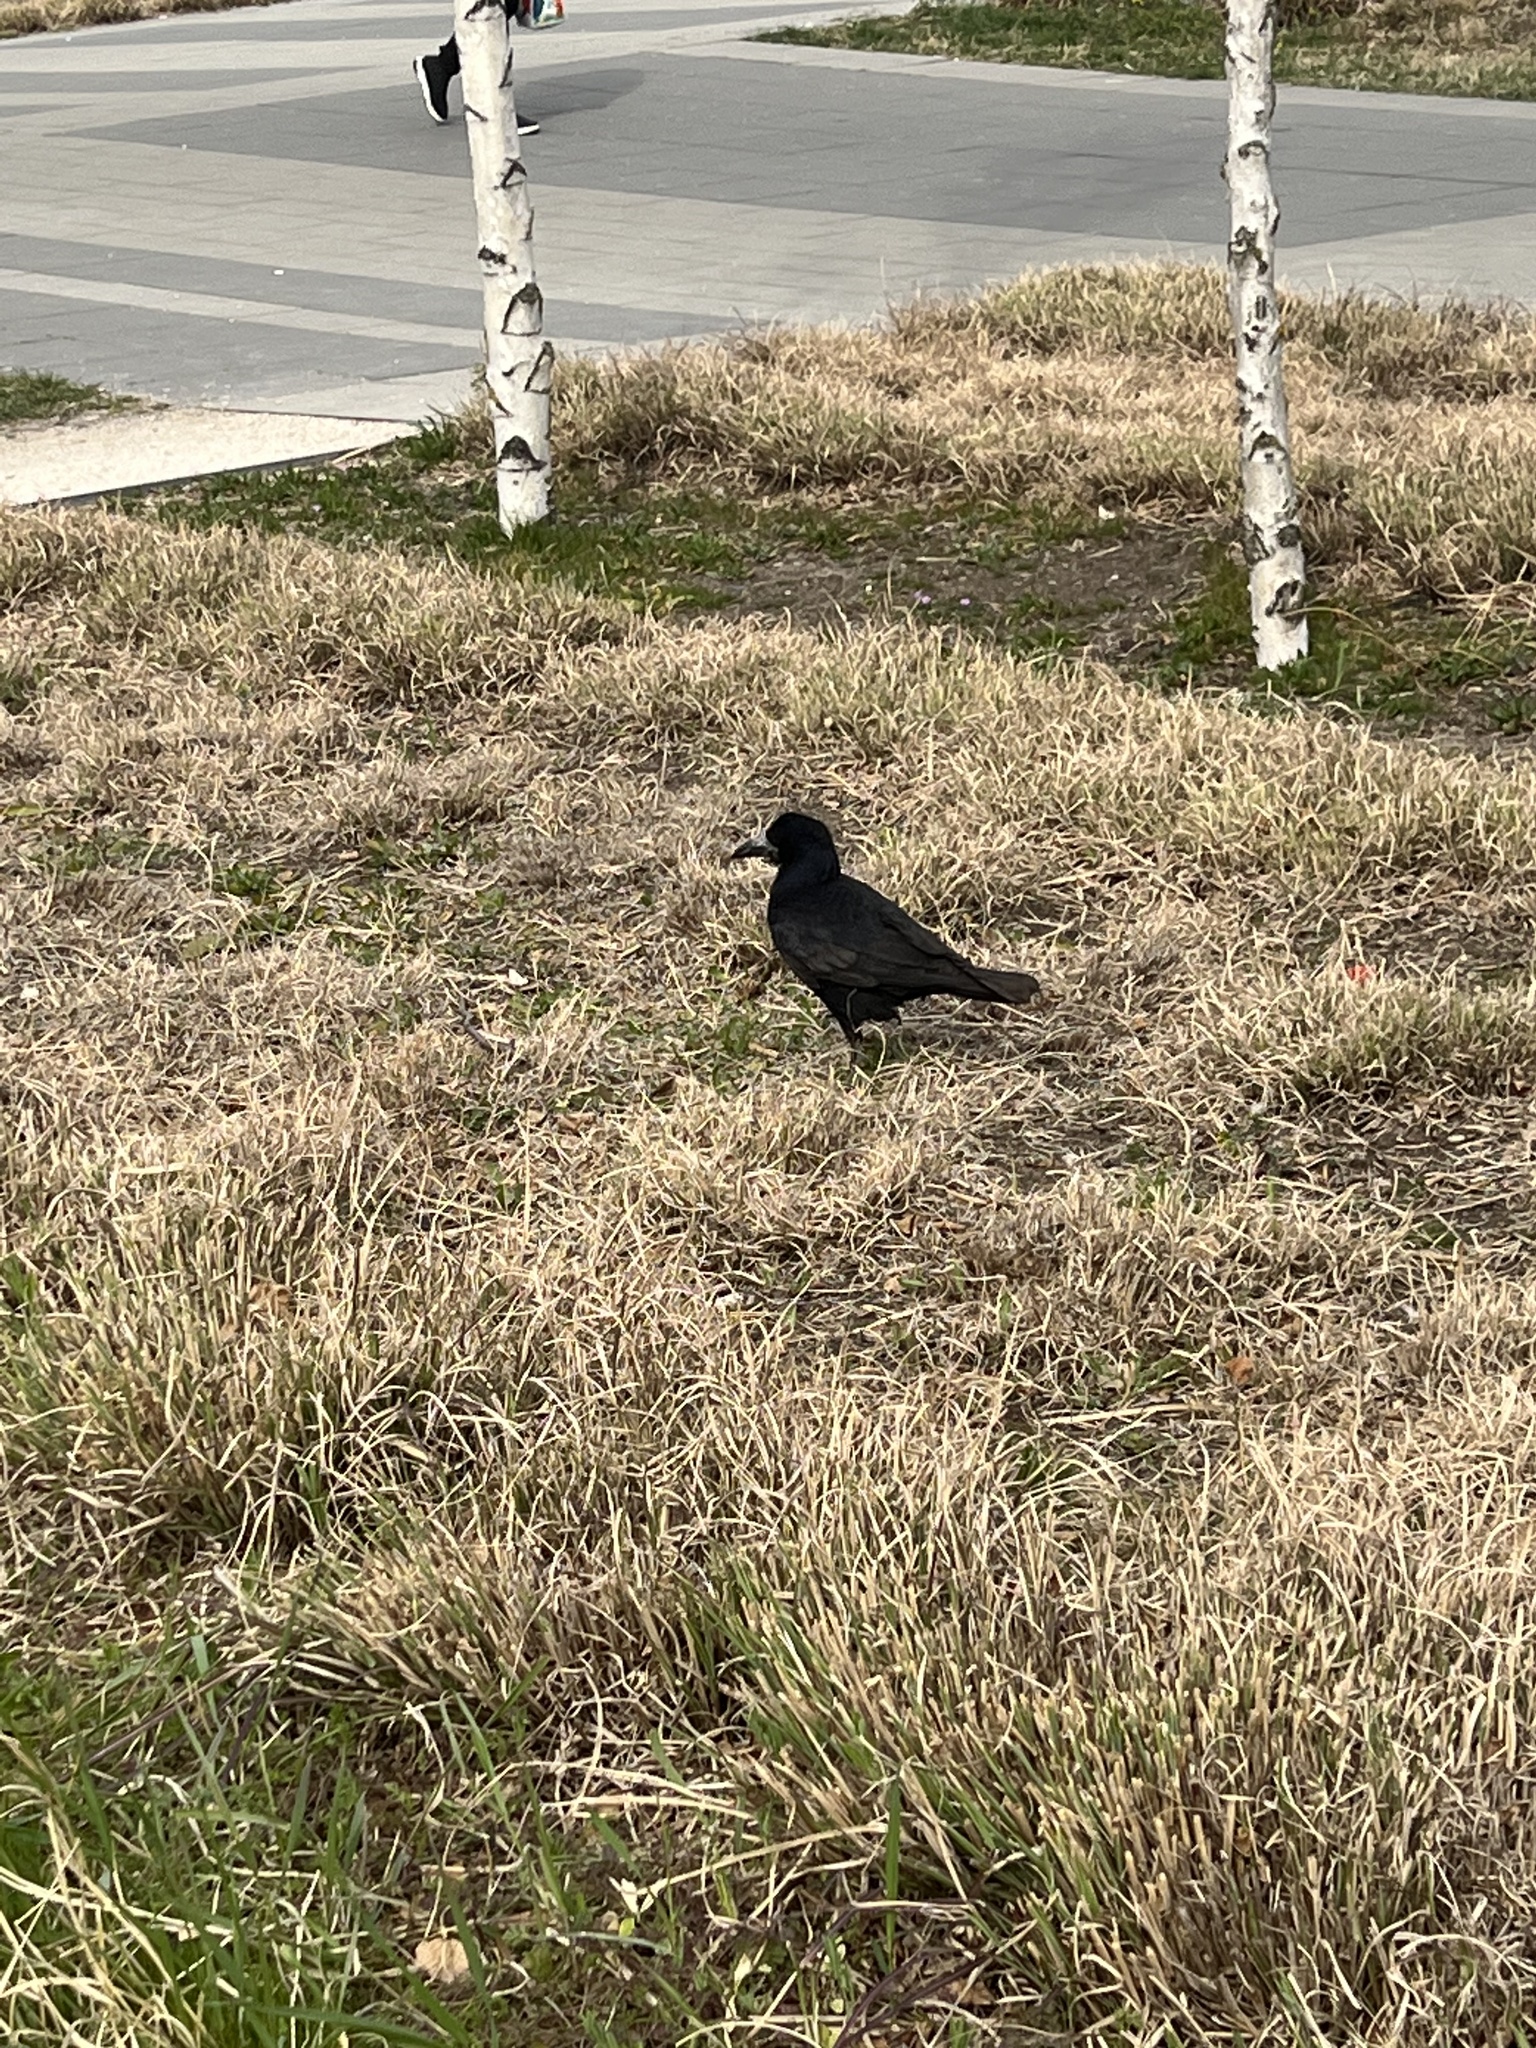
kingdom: Animalia
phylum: Chordata
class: Aves
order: Passeriformes
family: Corvidae
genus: Corvus
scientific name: Corvus cornix
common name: Hooded crow
